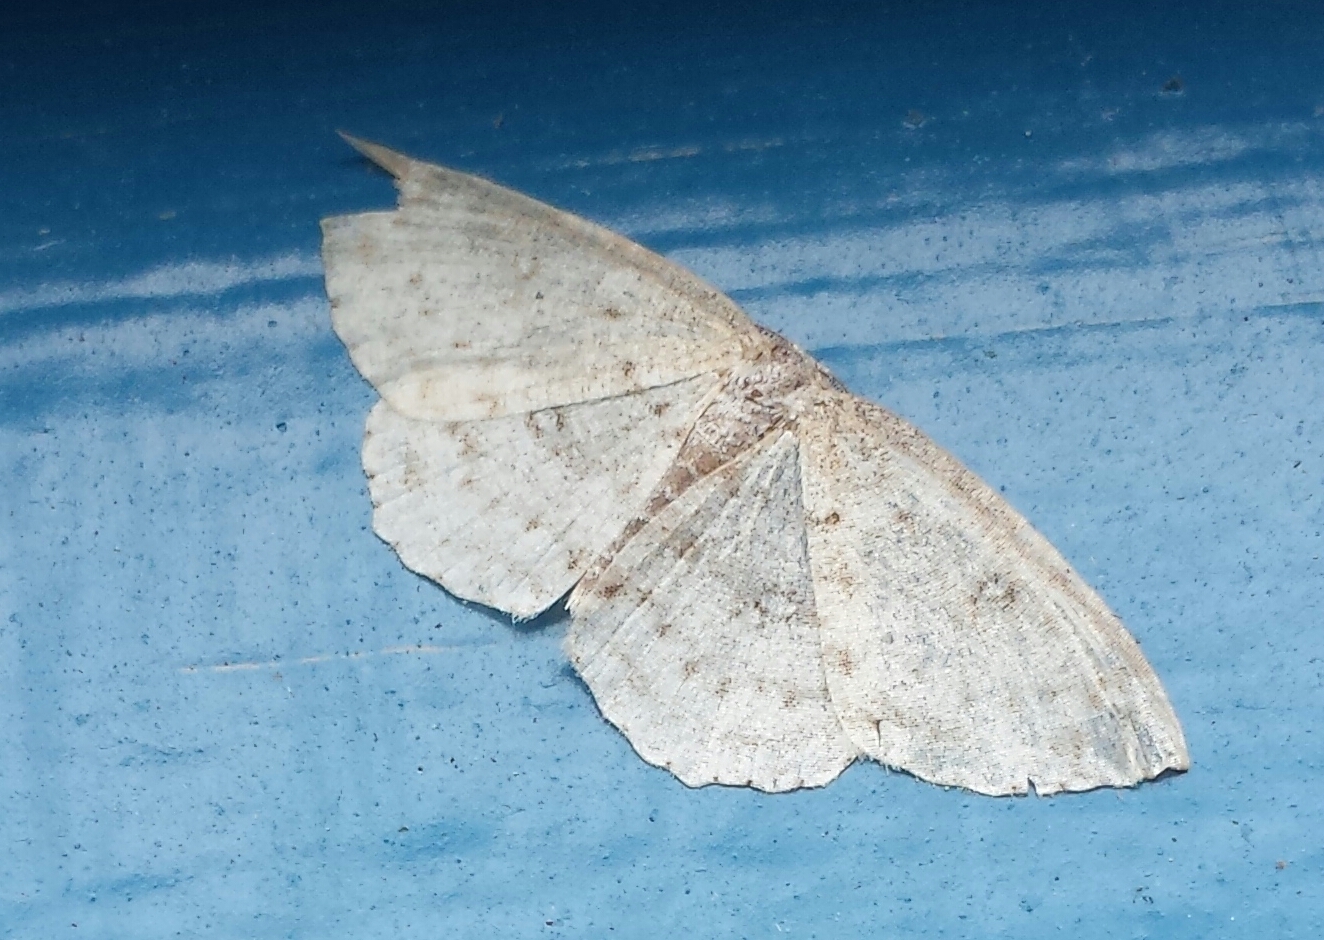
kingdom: Animalia
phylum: Arthropoda
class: Insecta
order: Lepidoptera
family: Geometridae
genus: Cyclophora
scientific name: Cyclophora pendulinaria
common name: Sweet fern geometer
